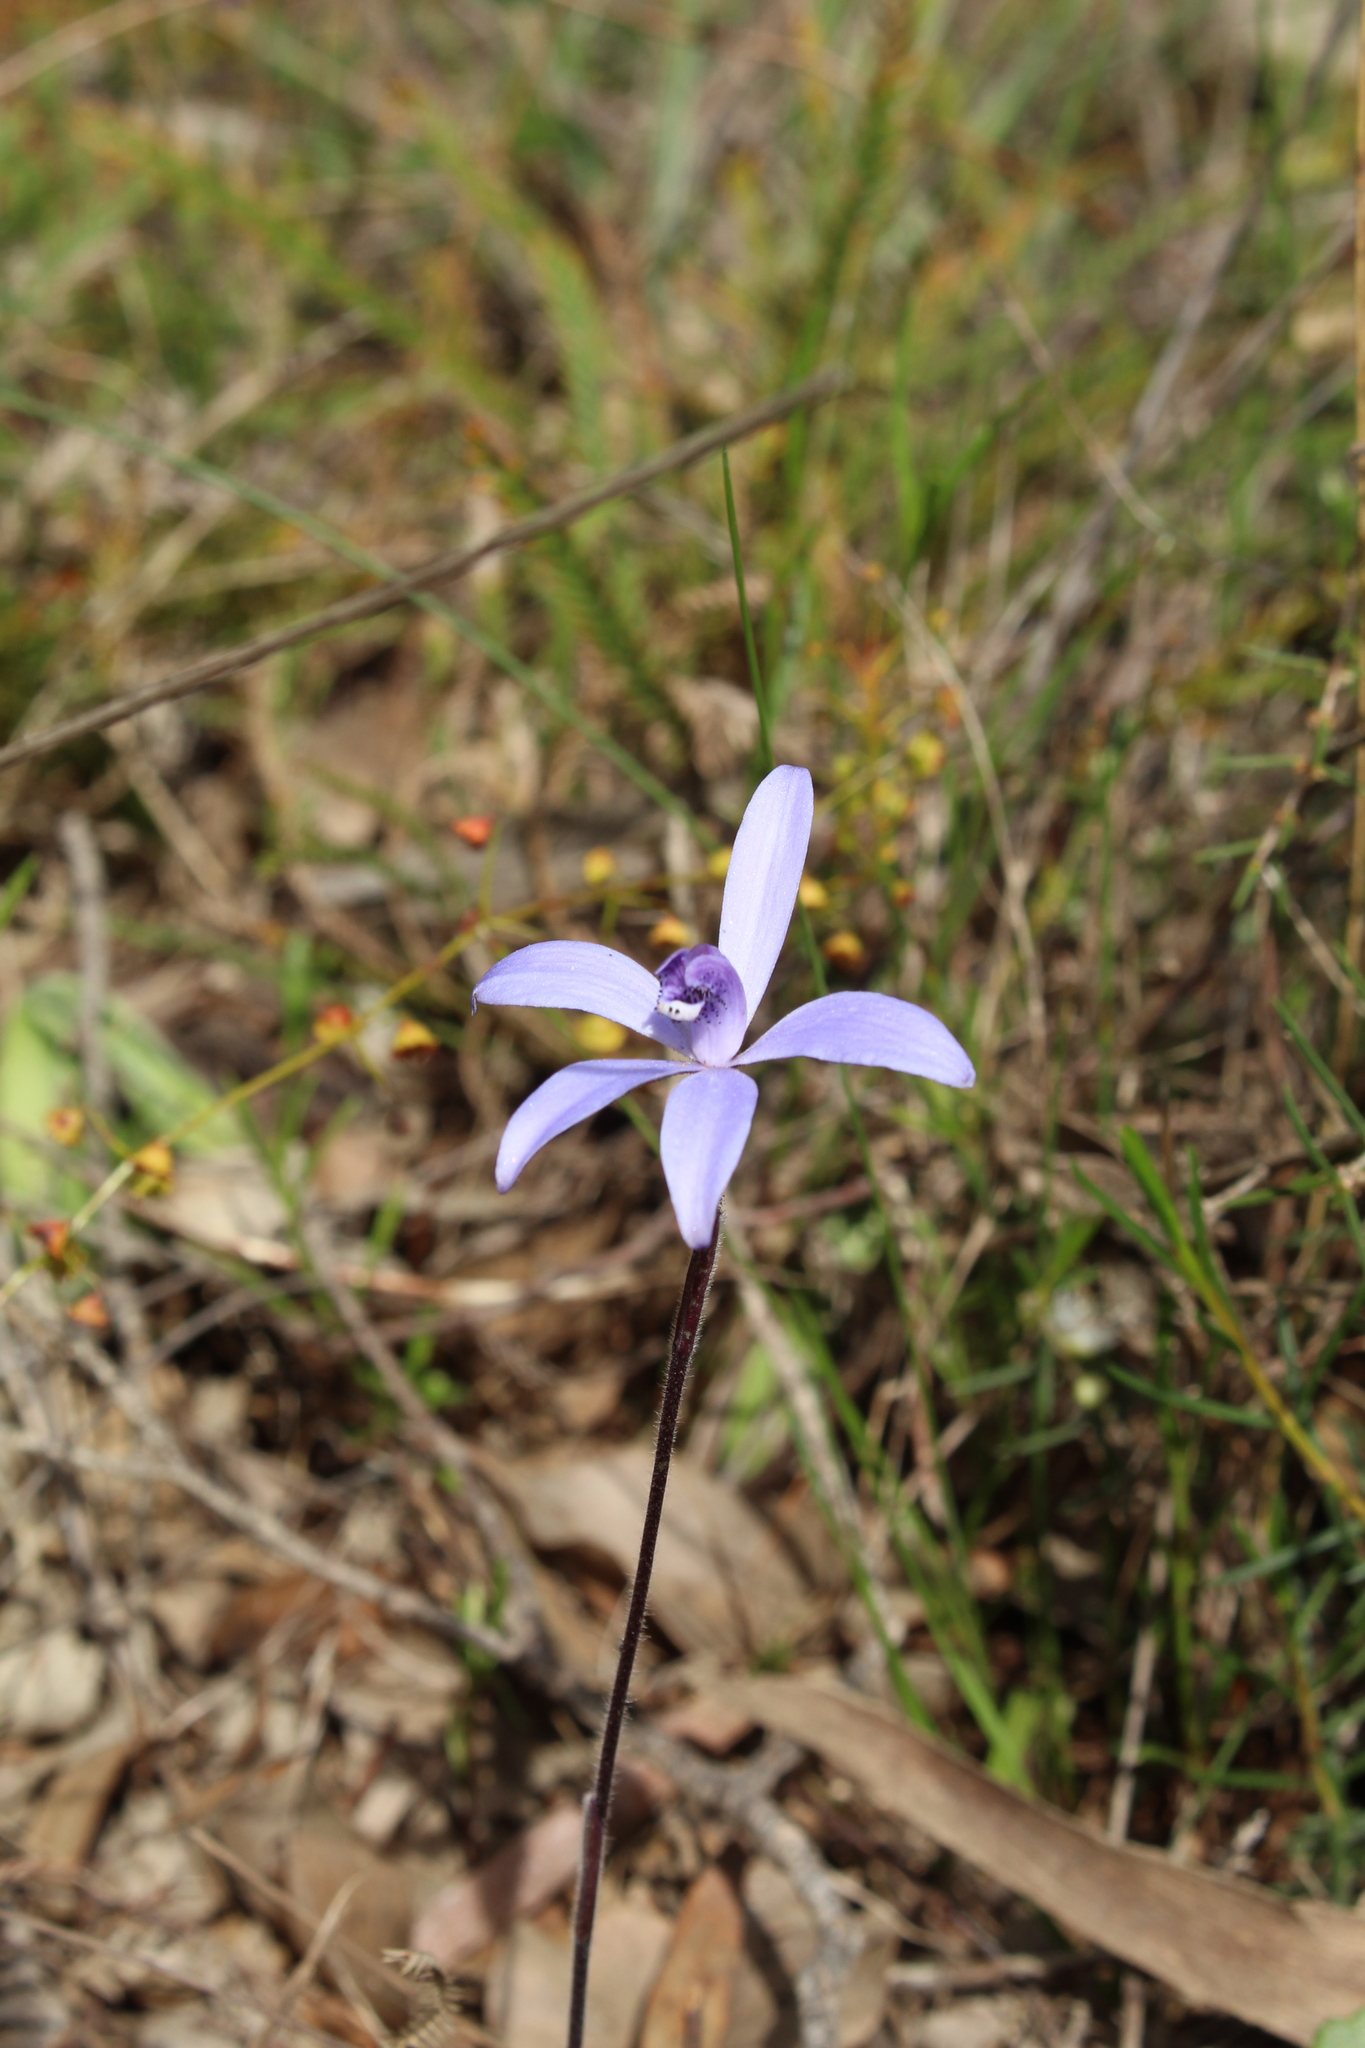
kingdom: Plantae
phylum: Tracheophyta
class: Liliopsida
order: Asparagales
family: Orchidaceae
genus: Caladenia
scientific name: Caladenia sericea
